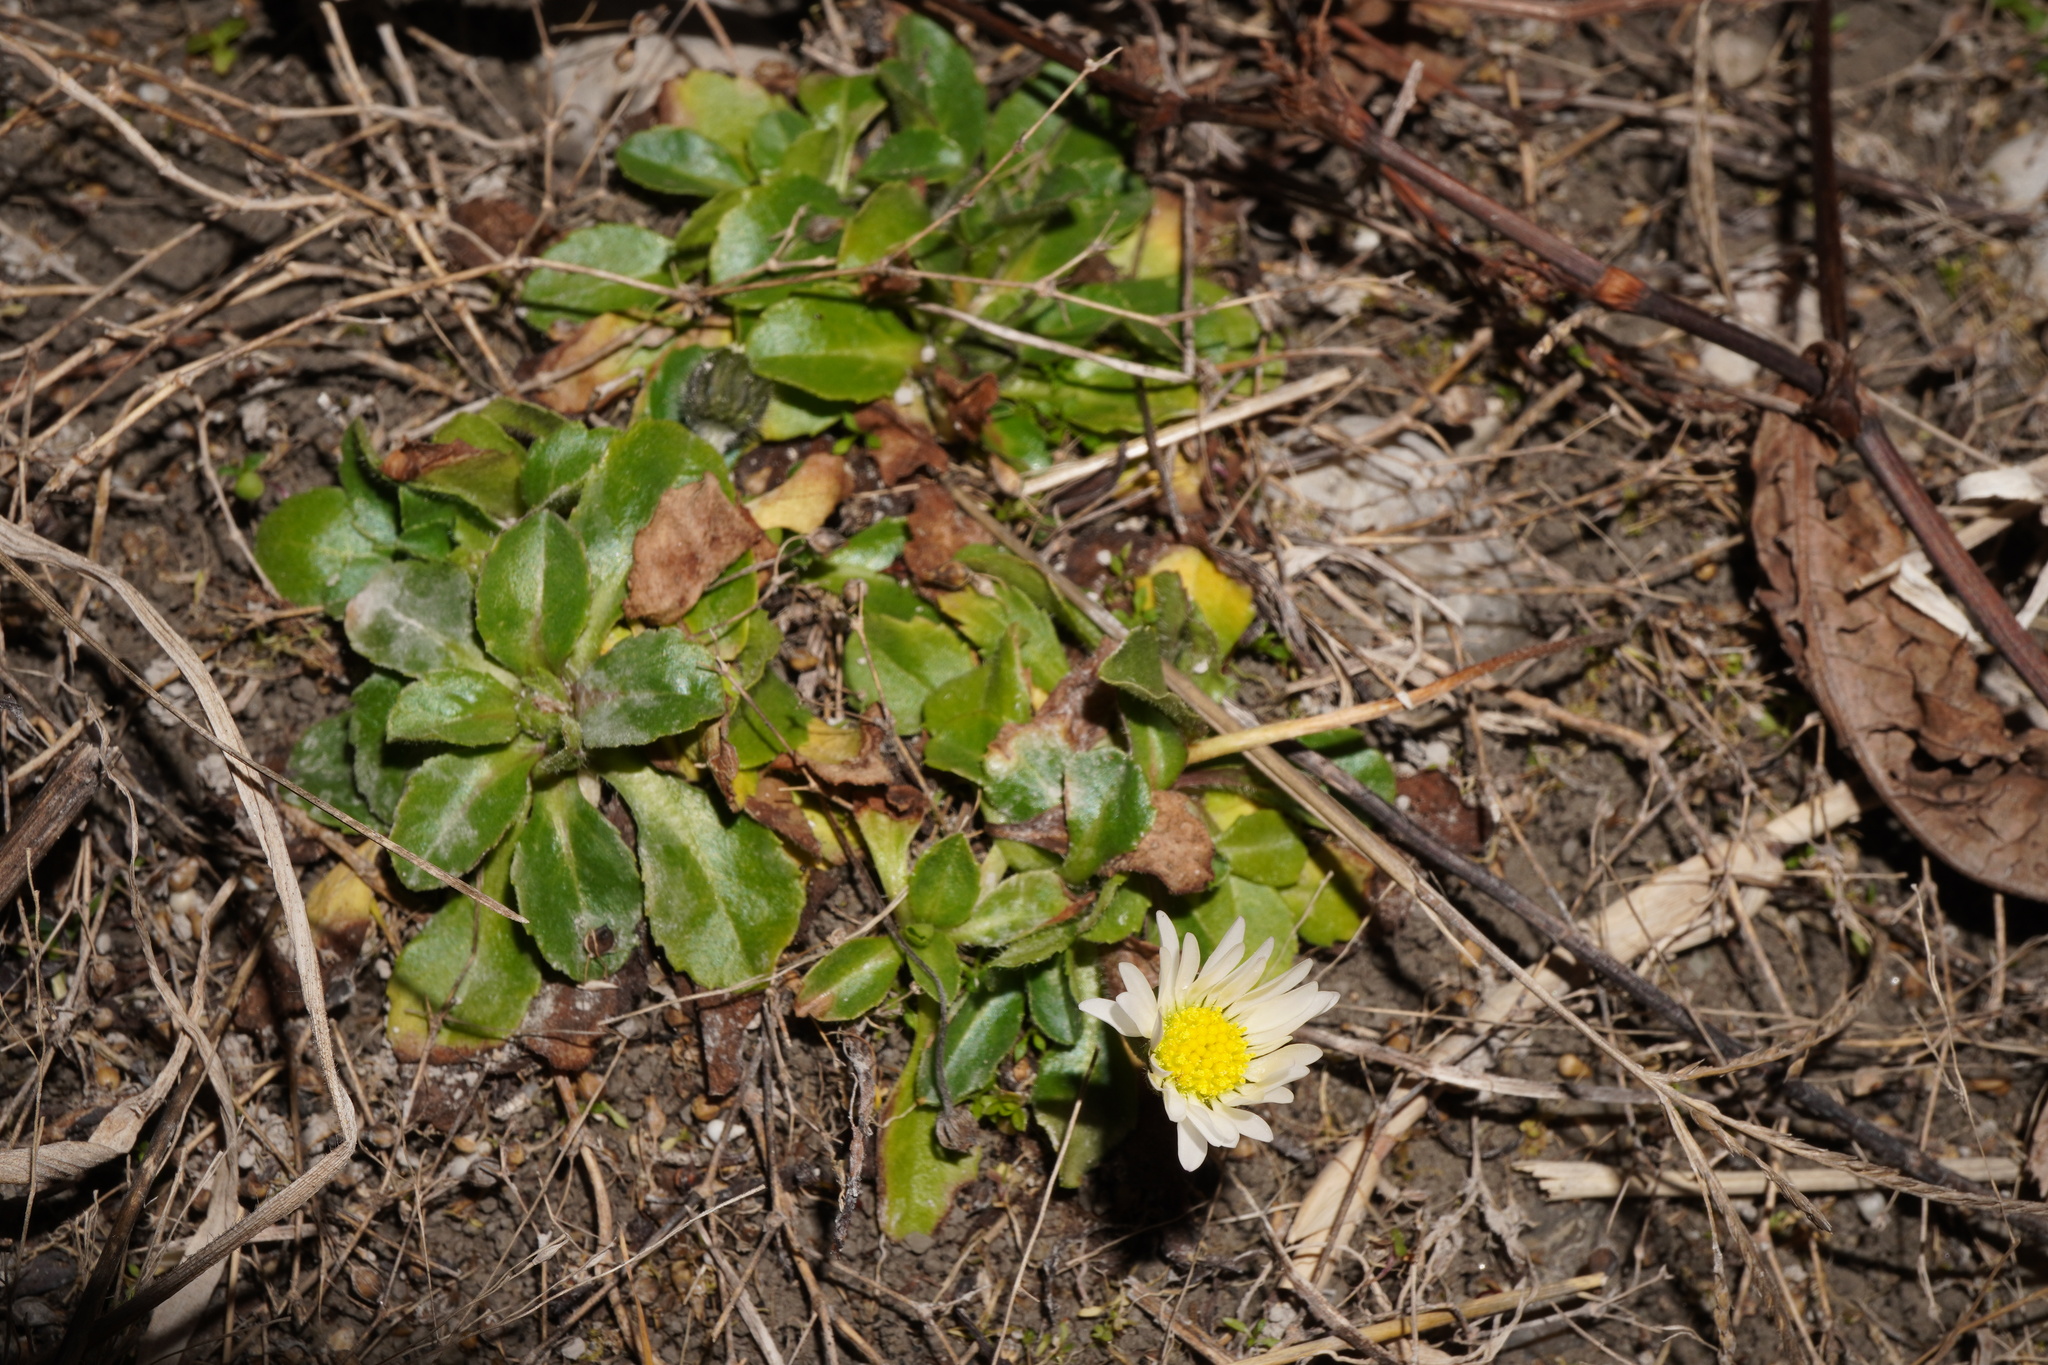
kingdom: Plantae
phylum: Tracheophyta
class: Magnoliopsida
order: Asterales
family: Asteraceae
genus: Bellis
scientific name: Bellis perennis
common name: Lawndaisy
